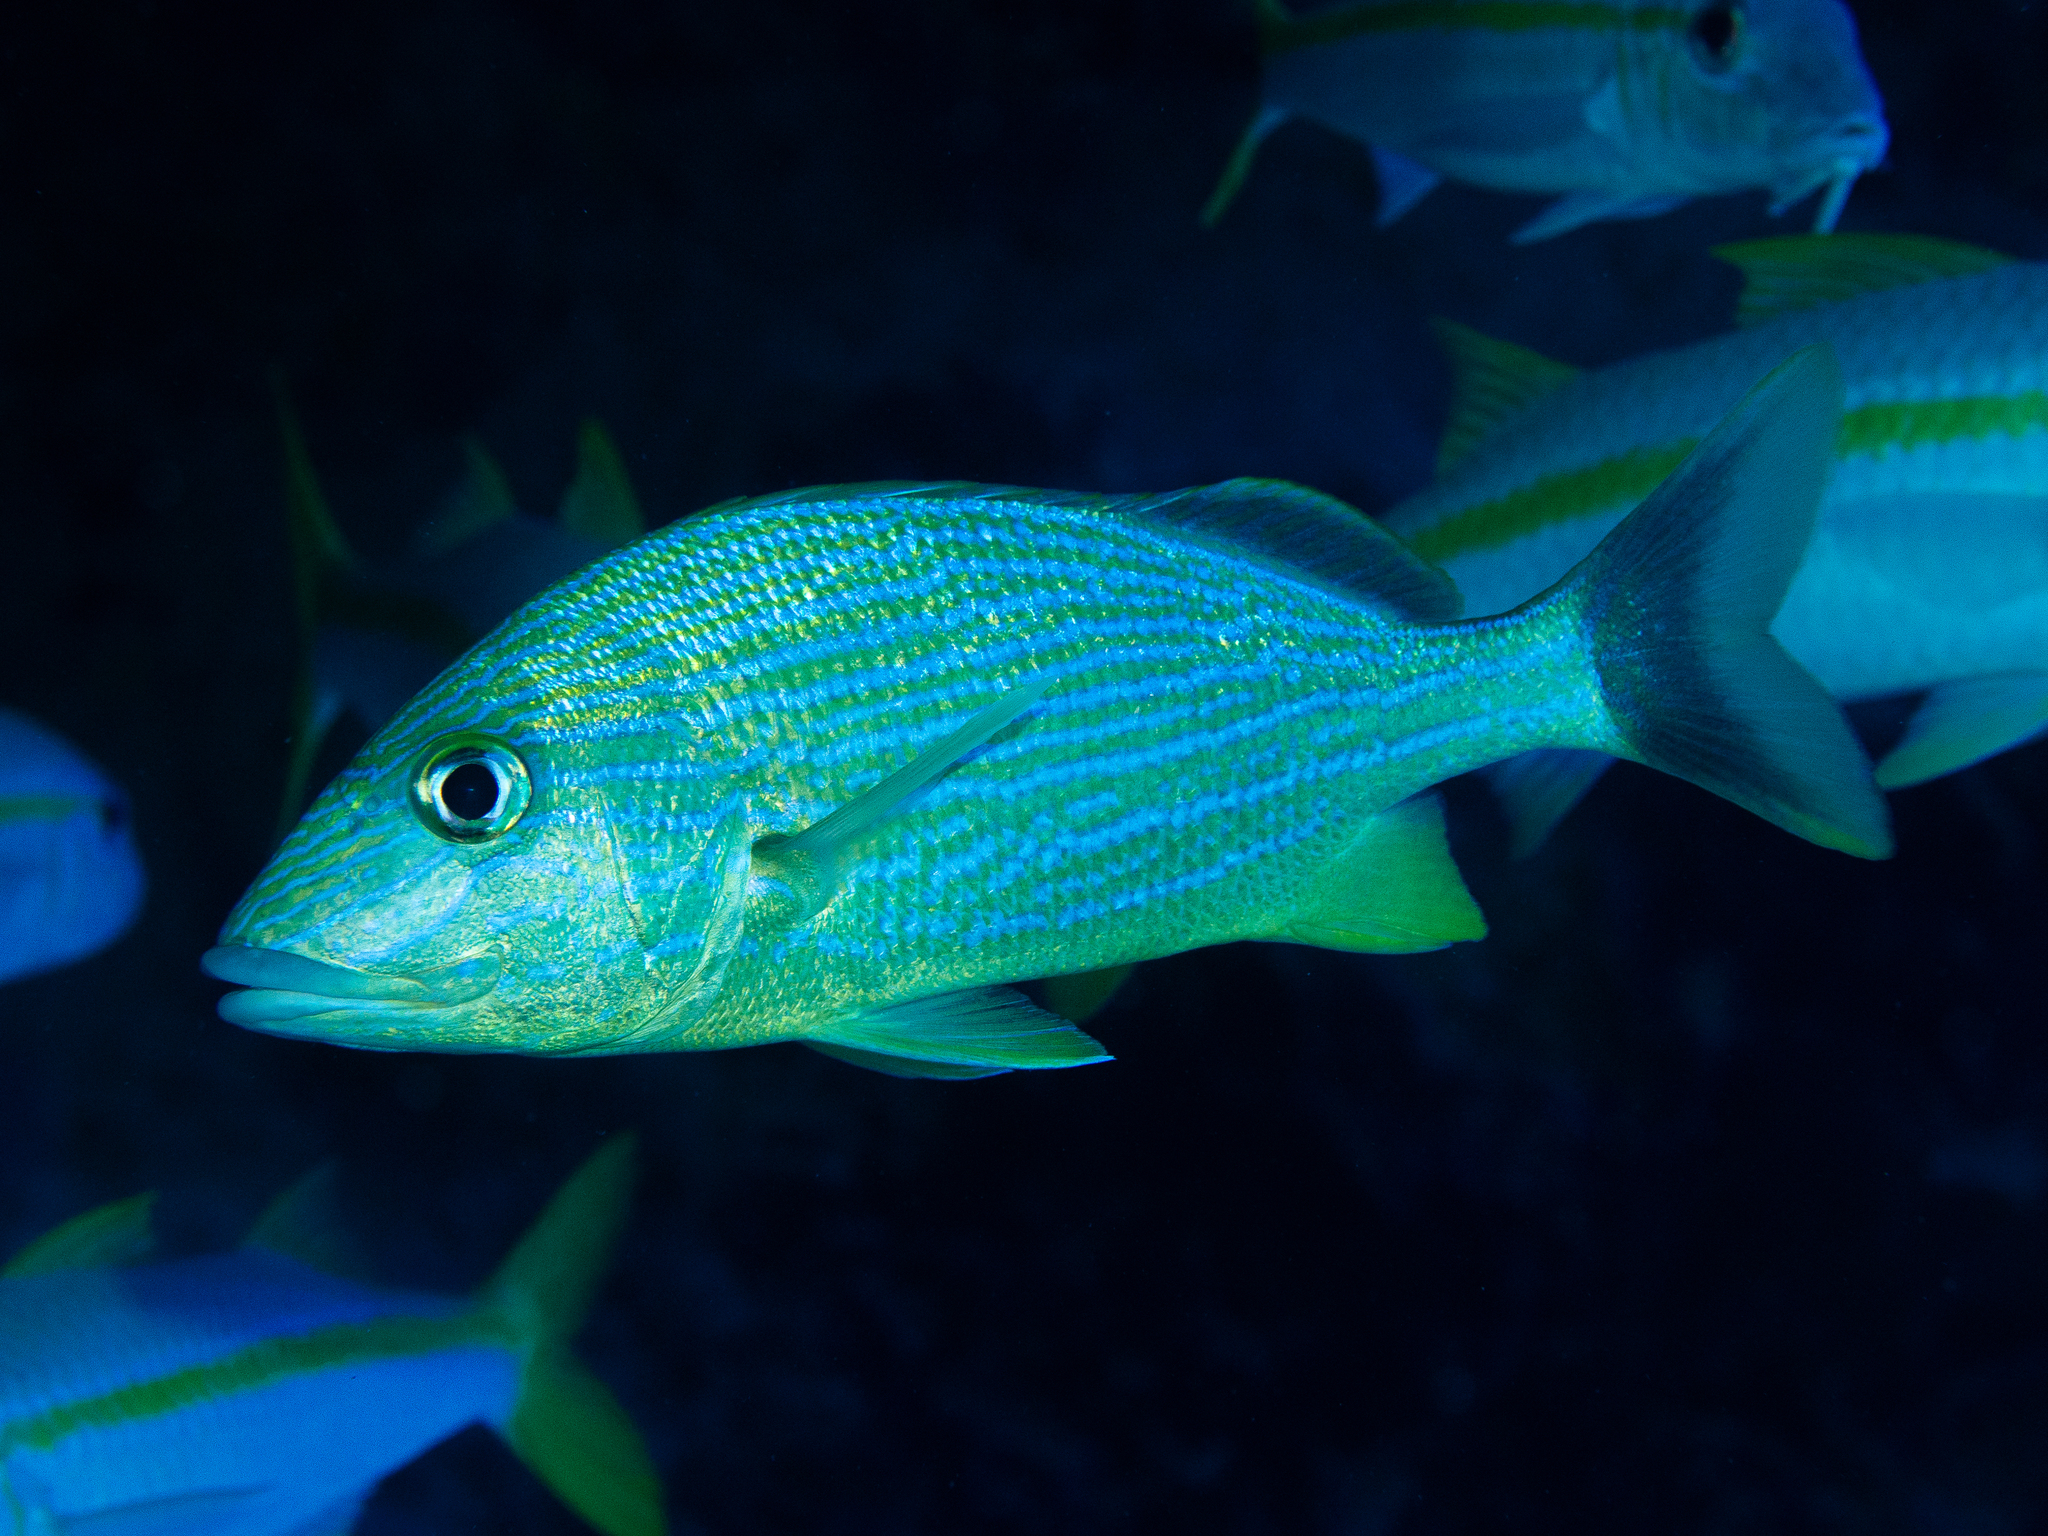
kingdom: Animalia
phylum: Chordata
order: Perciformes
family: Haemulidae
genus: Haemulon
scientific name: Haemulon sciurus
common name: Bluestriped grunt
